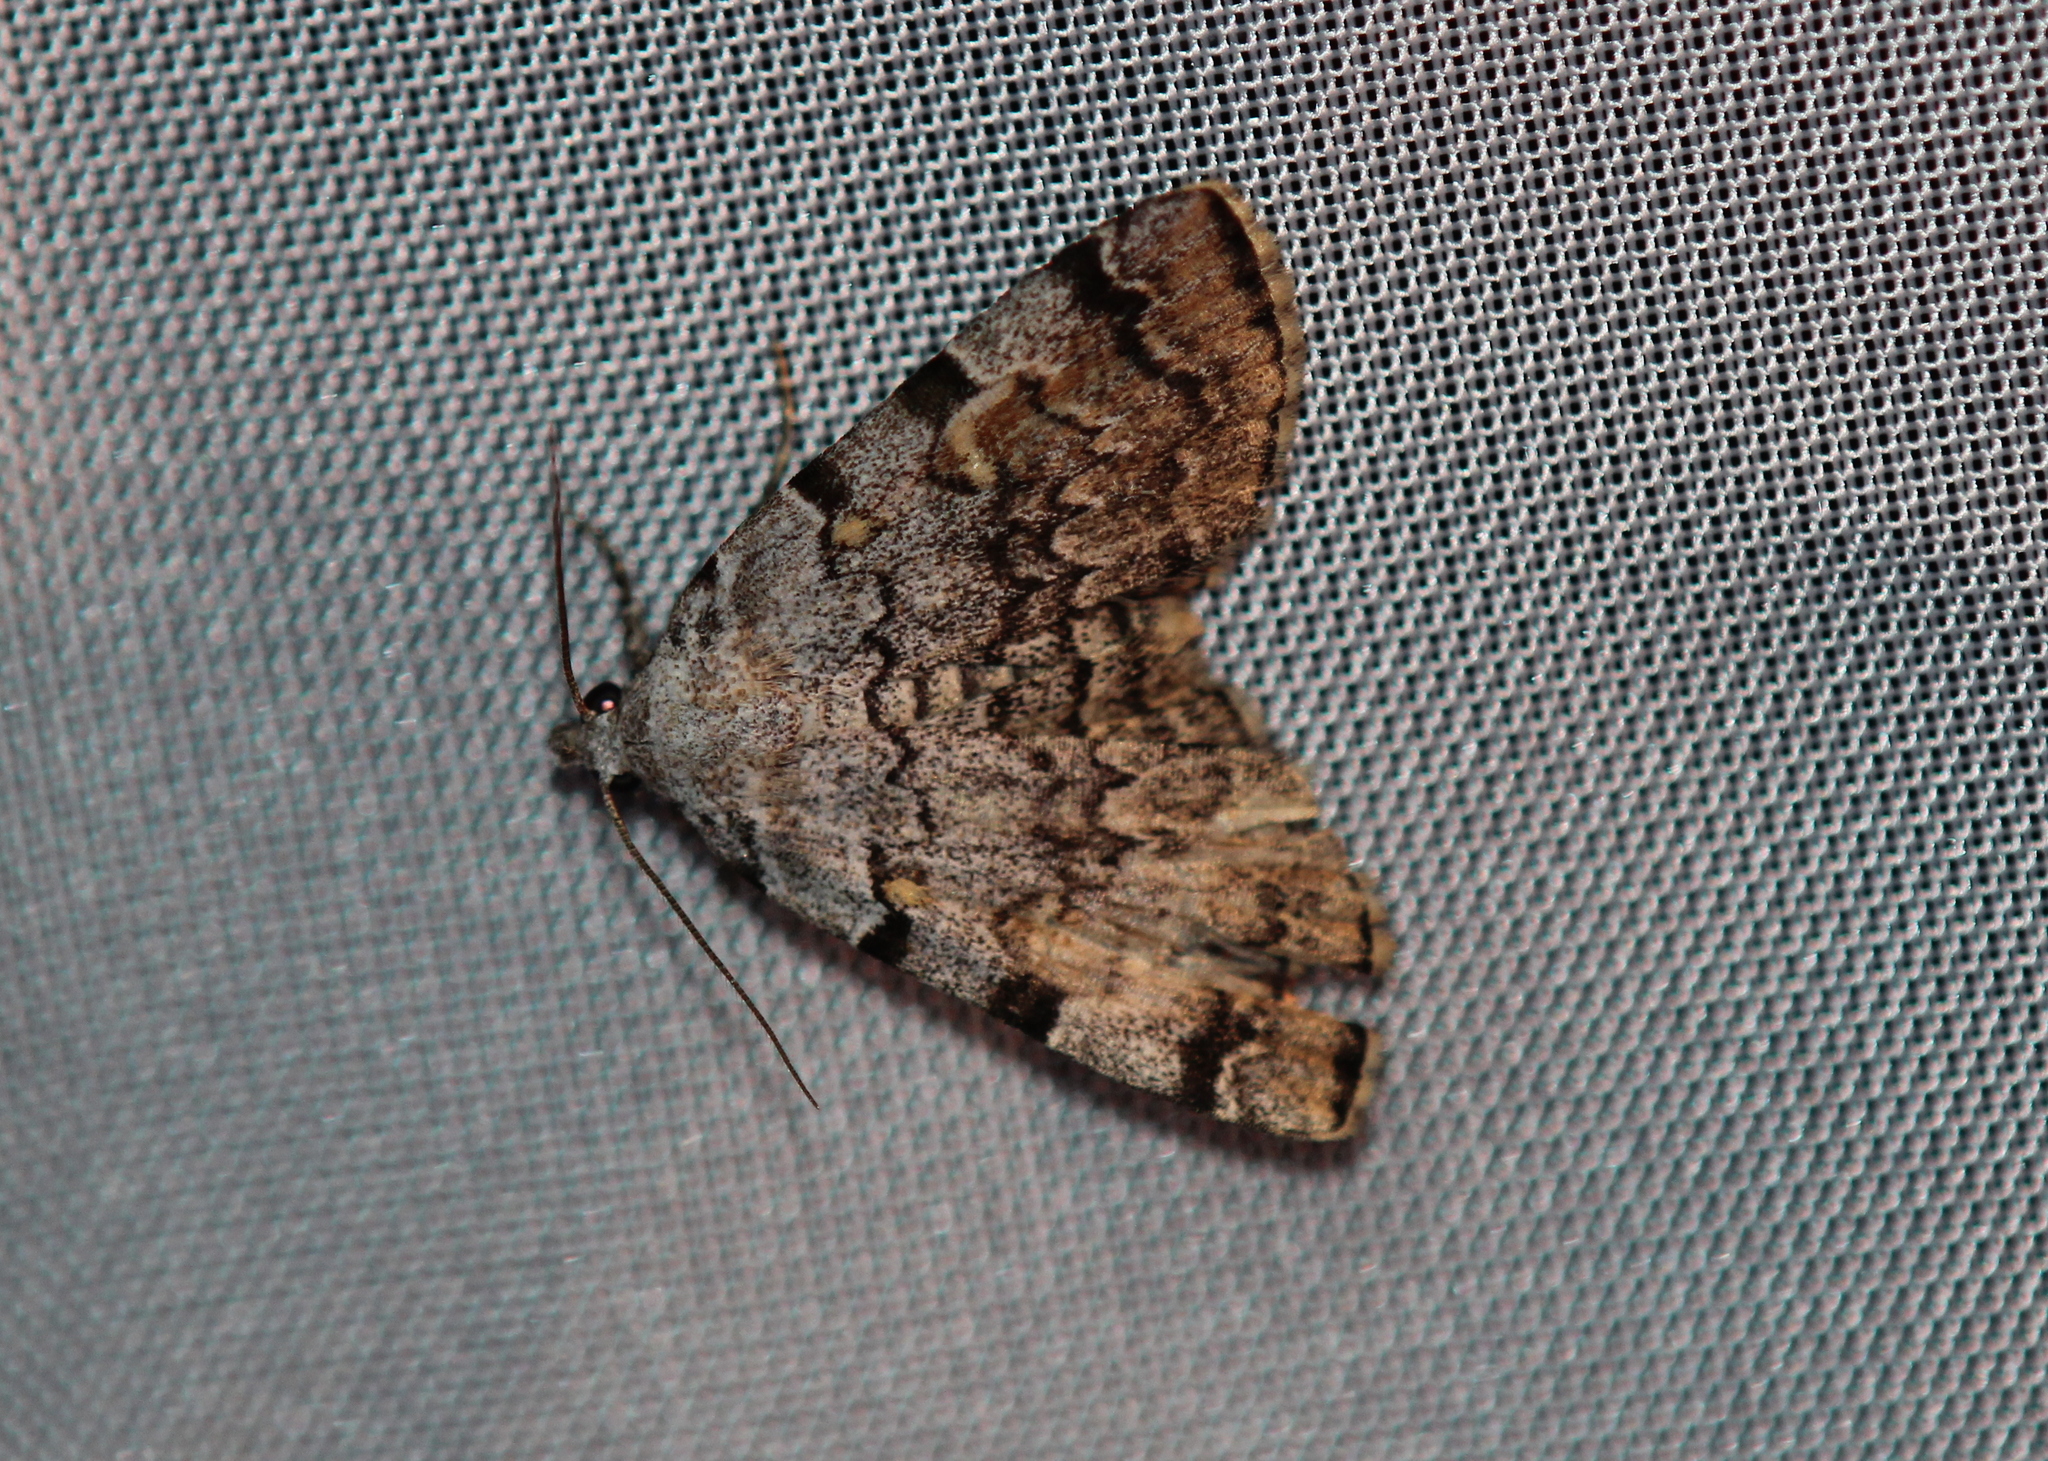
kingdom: Animalia
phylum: Arthropoda
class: Insecta
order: Lepidoptera
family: Erebidae
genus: Idia
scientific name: Idia americalis
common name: American idia moth
